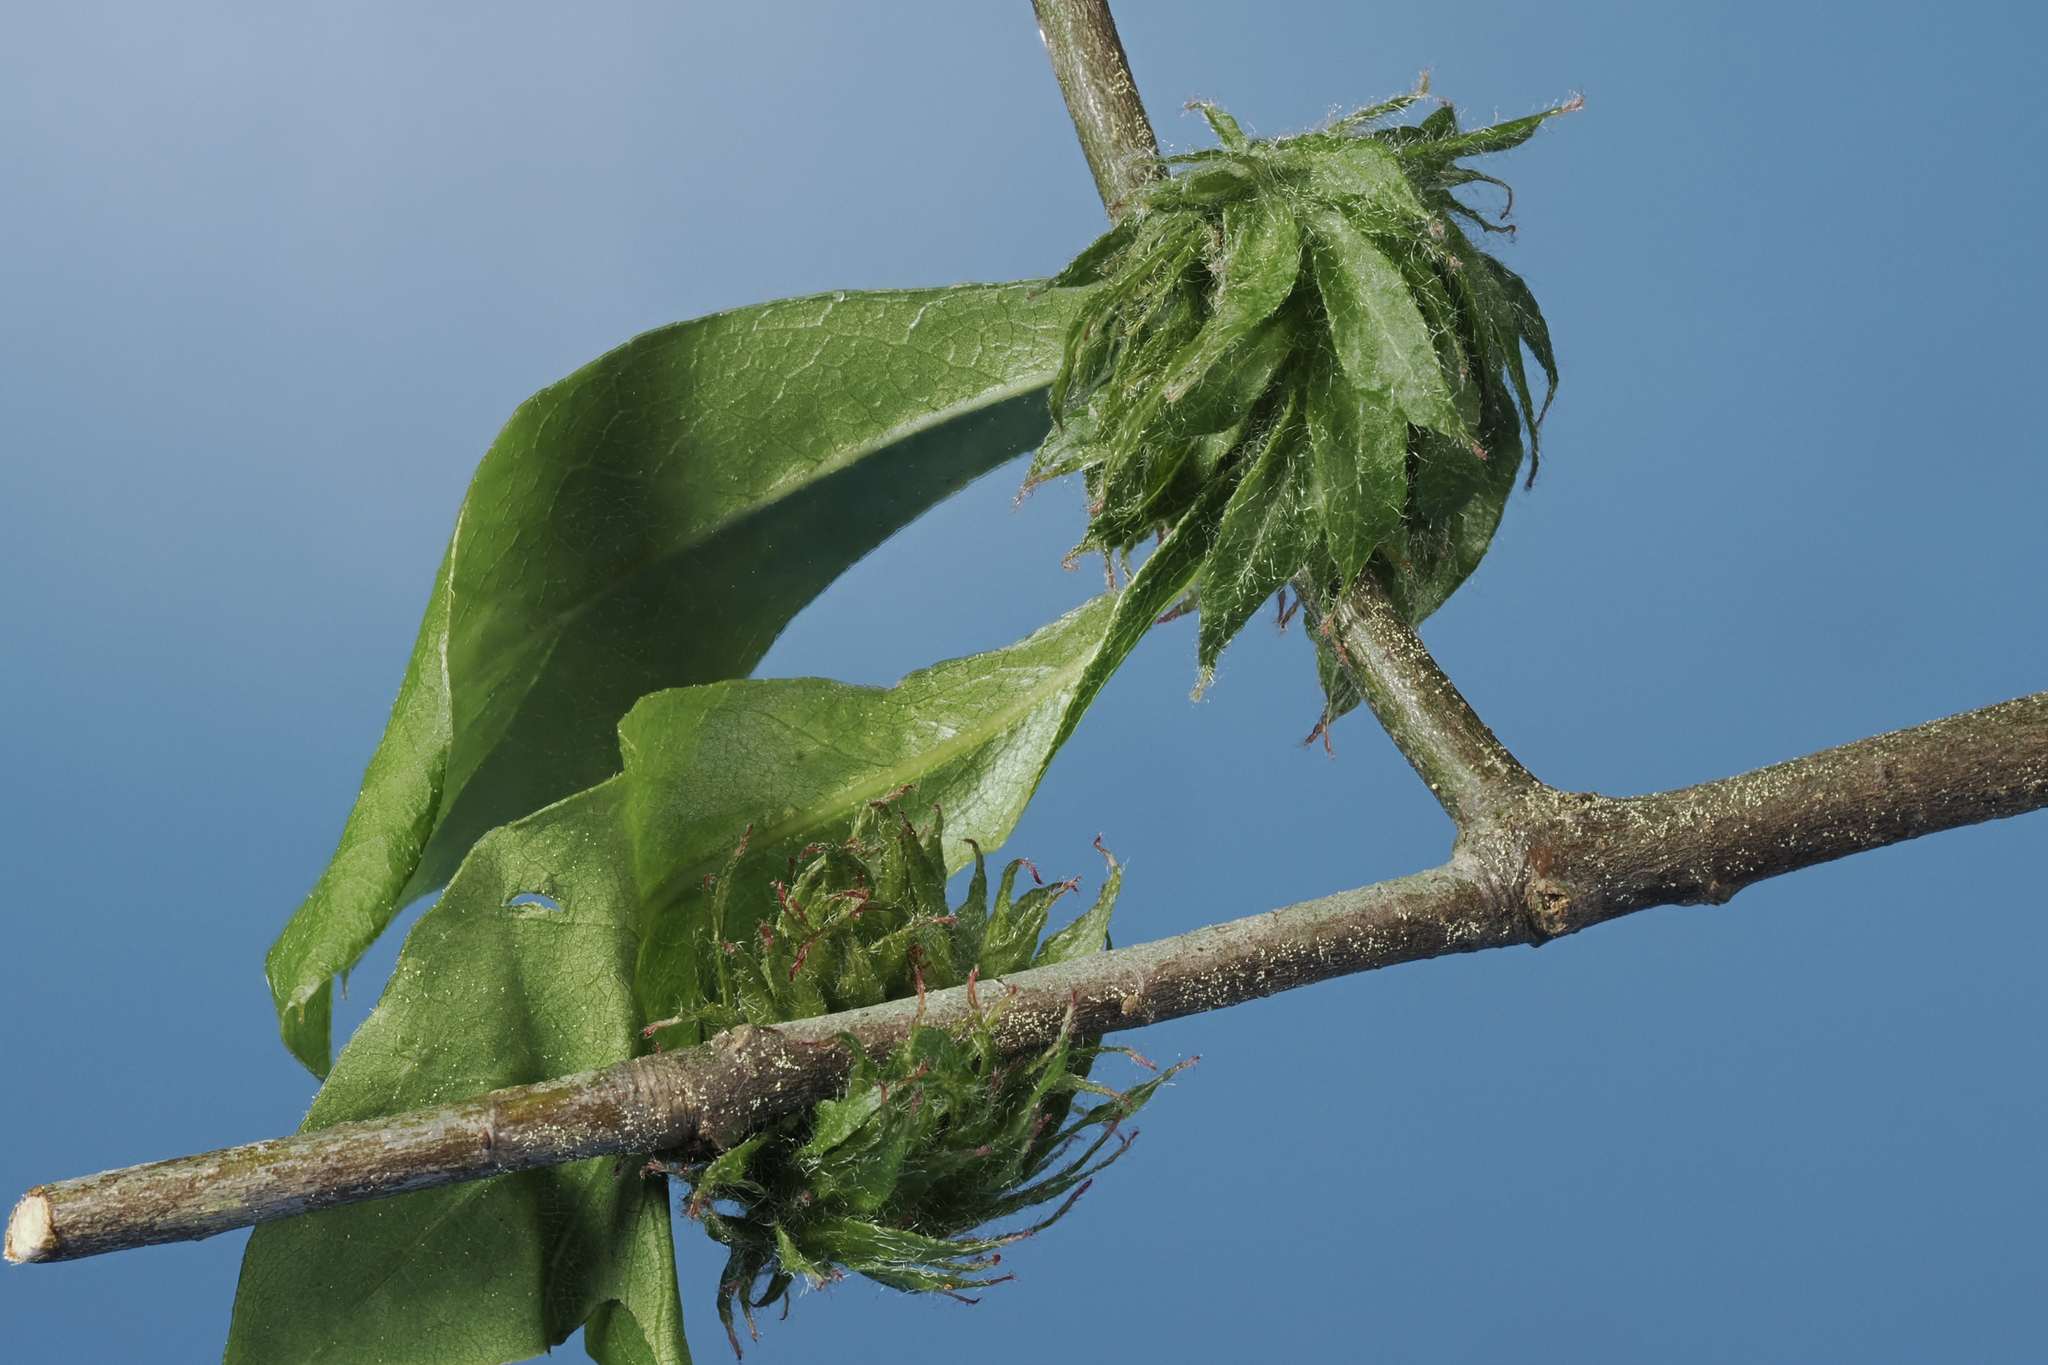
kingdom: Animalia
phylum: Arthropoda
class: Insecta
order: Hymenoptera
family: Cynipidae
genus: Dryocosmus
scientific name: Dryocosmus
